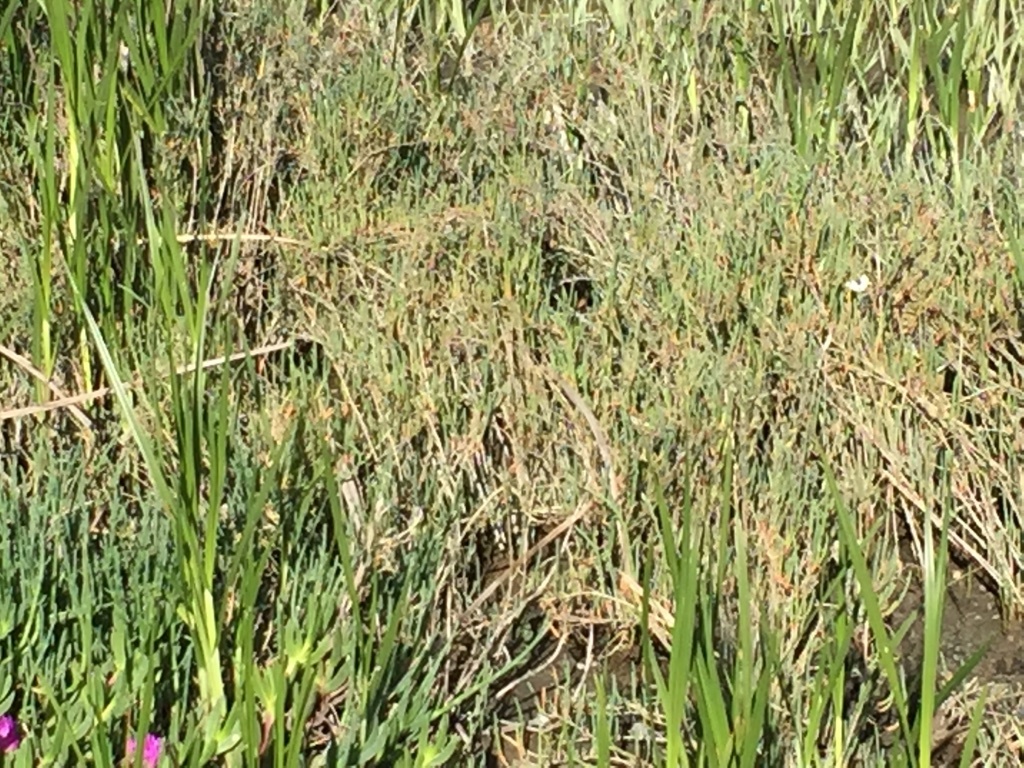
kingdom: Plantae
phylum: Tracheophyta
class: Liliopsida
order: Poales
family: Poaceae
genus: Distichlis
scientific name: Distichlis spicata
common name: Saltgrass
